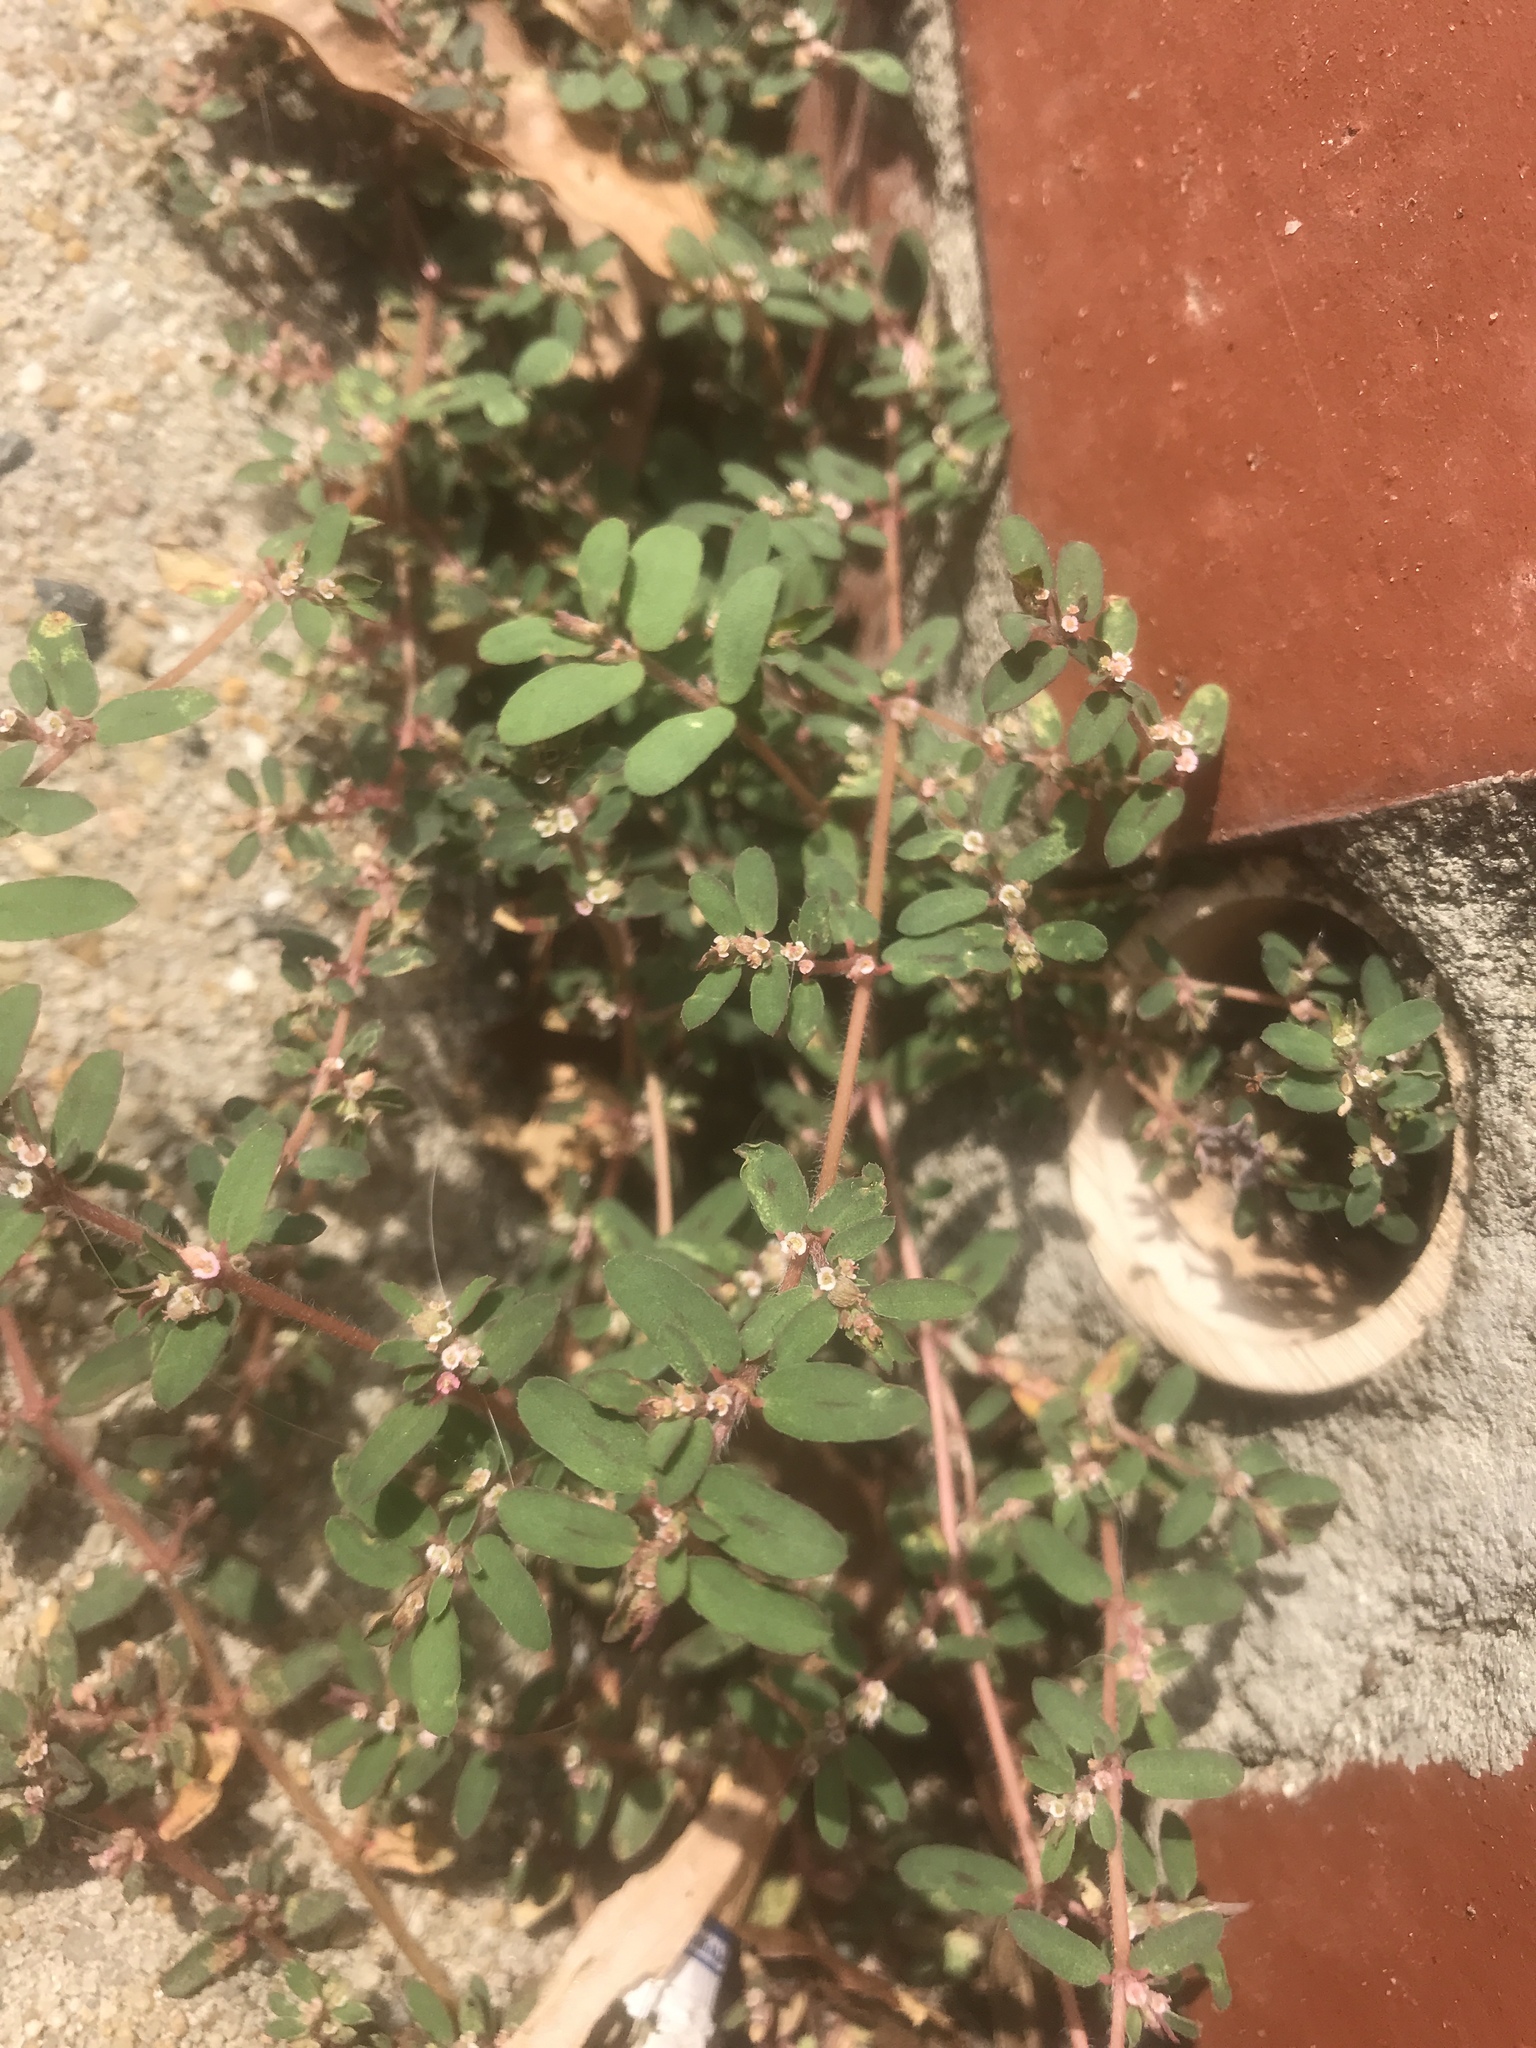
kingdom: Plantae
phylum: Tracheophyta
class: Magnoliopsida
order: Malpighiales
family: Euphorbiaceae
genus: Euphorbia
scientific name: Euphorbia maculata
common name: Spotted spurge
